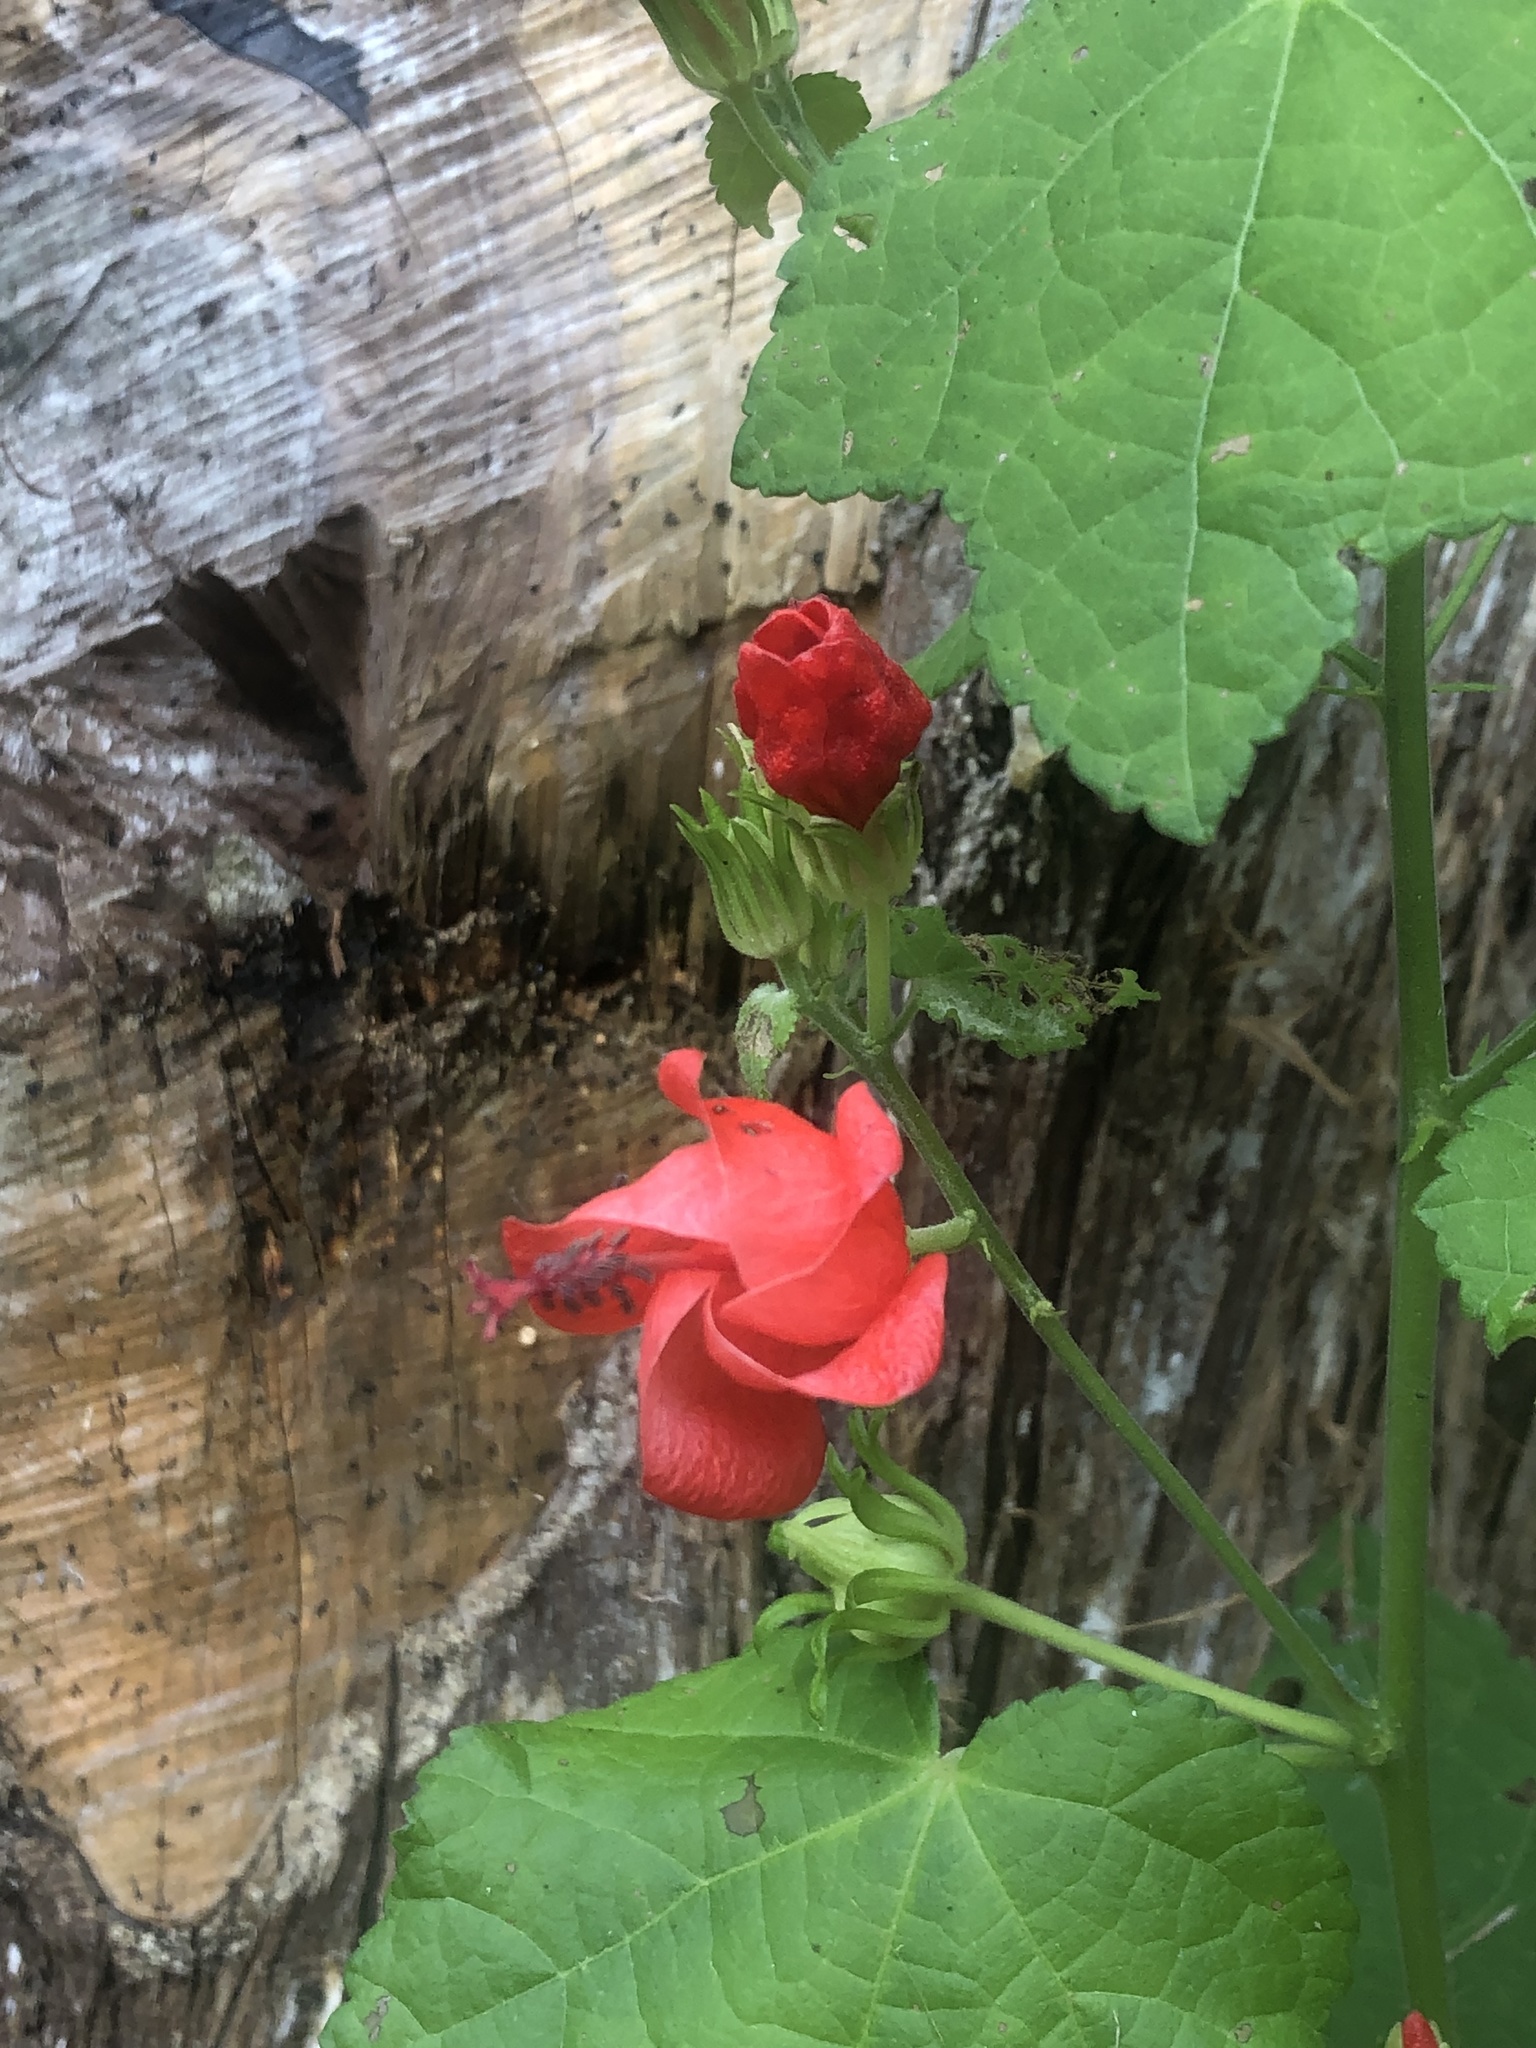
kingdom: Plantae
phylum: Tracheophyta
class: Magnoliopsida
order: Malvales
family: Malvaceae
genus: Malvaviscus
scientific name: Malvaviscus arboreus
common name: Wax mallow
